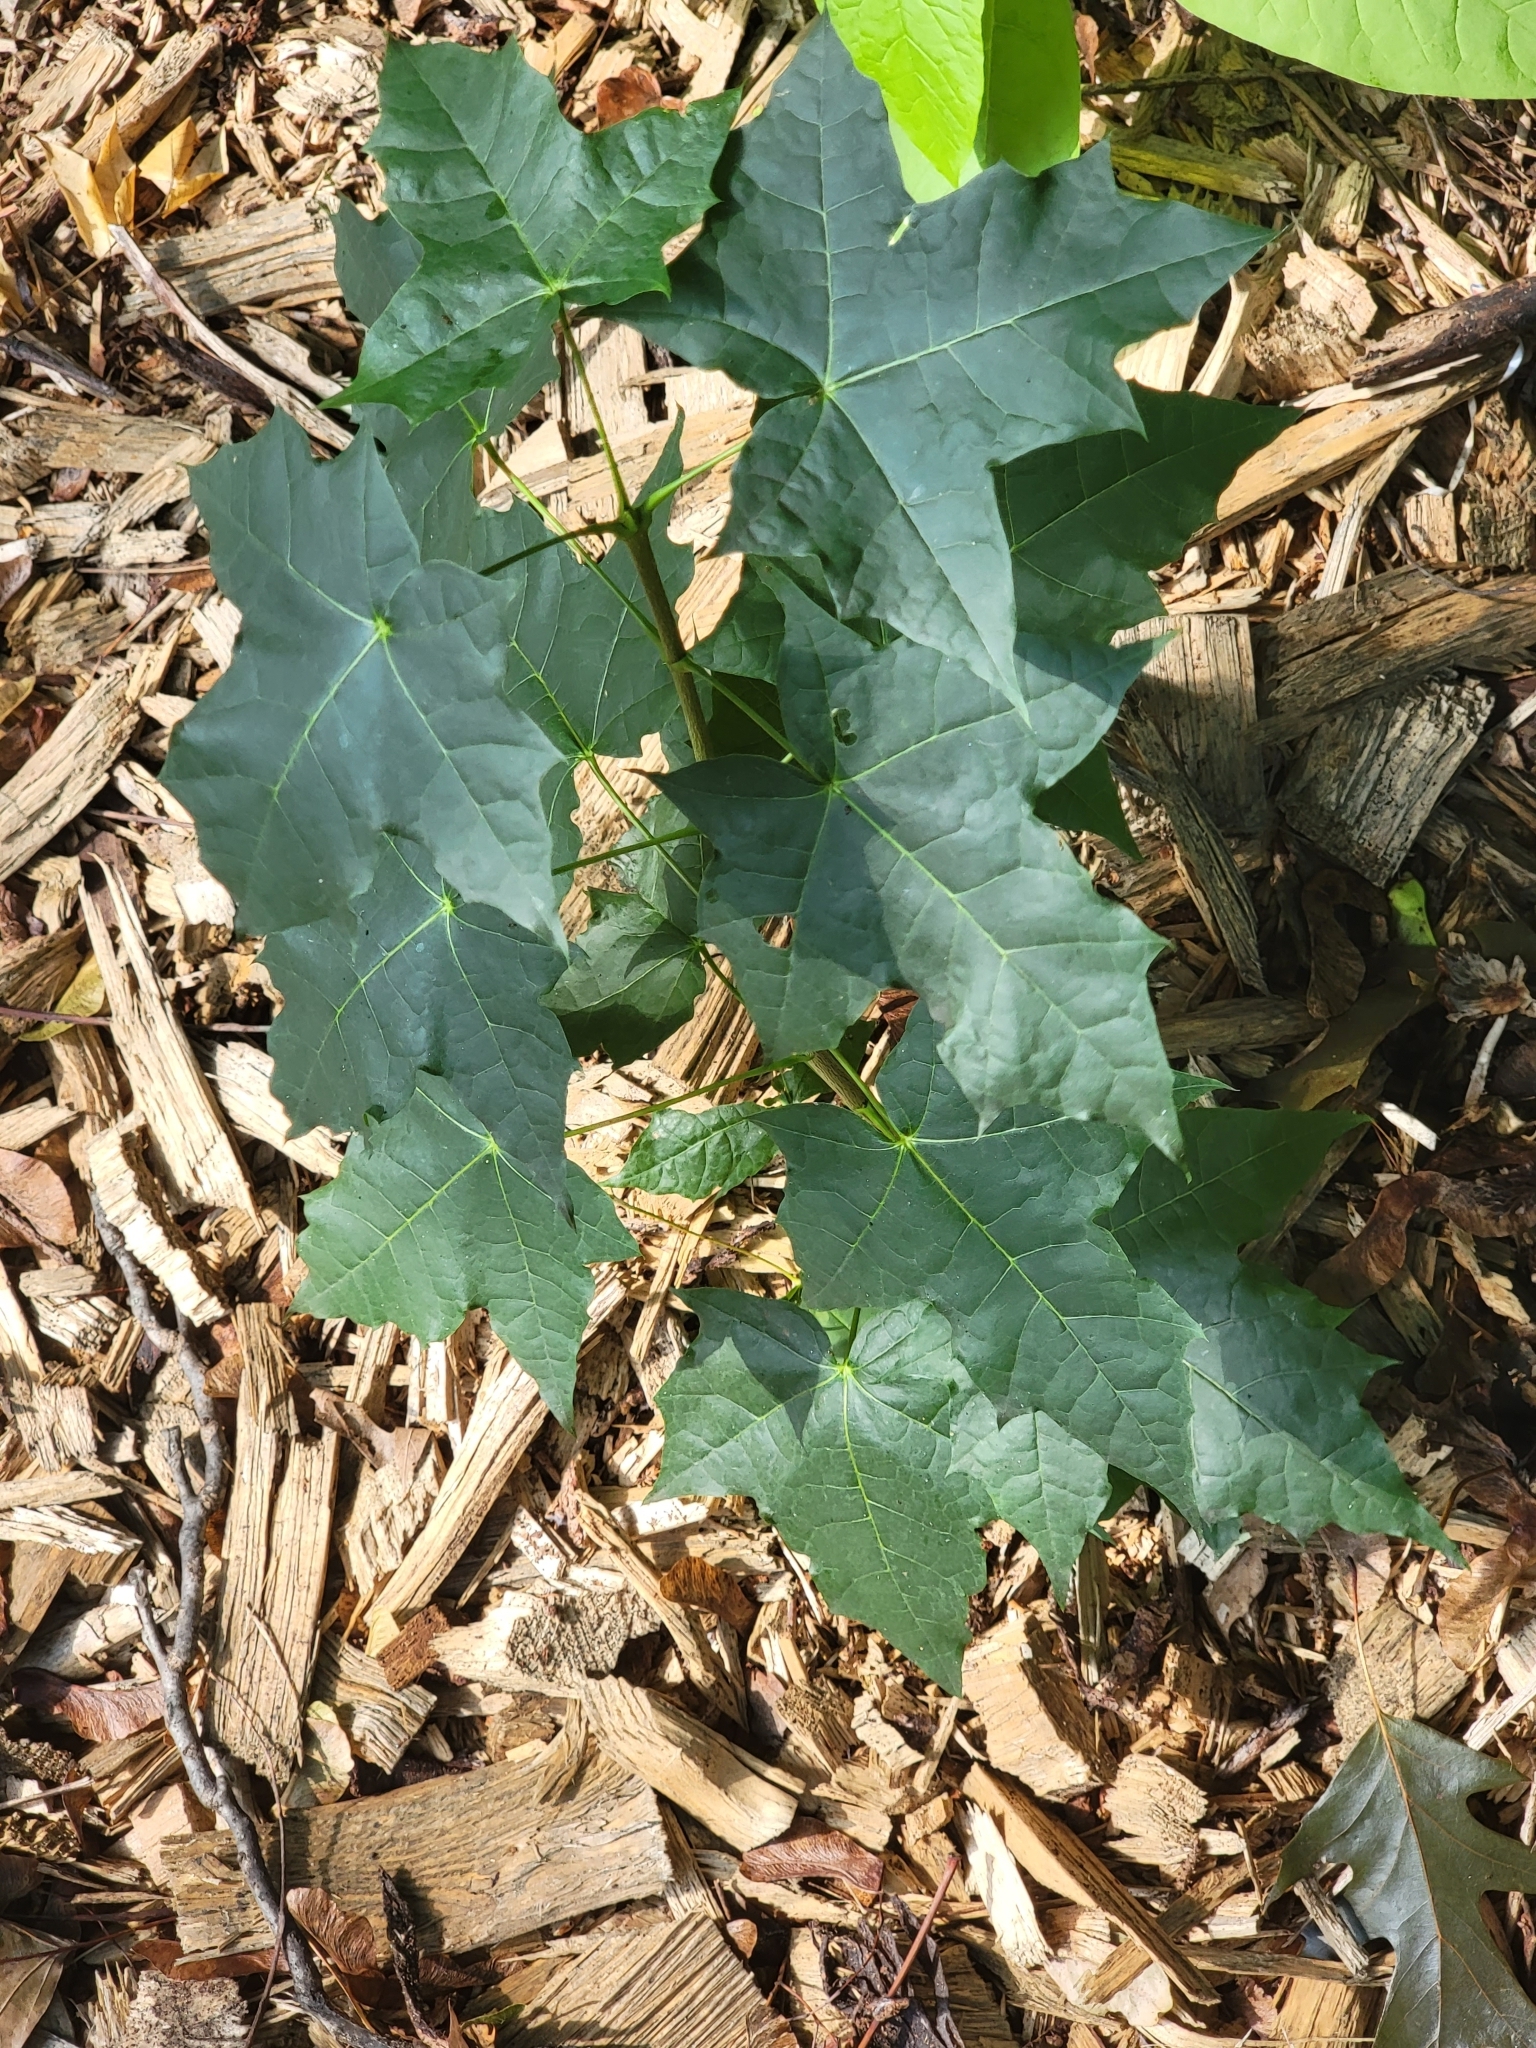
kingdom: Plantae
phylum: Tracheophyta
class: Magnoliopsida
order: Sapindales
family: Sapindaceae
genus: Acer
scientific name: Acer platanoides
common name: Norway maple
